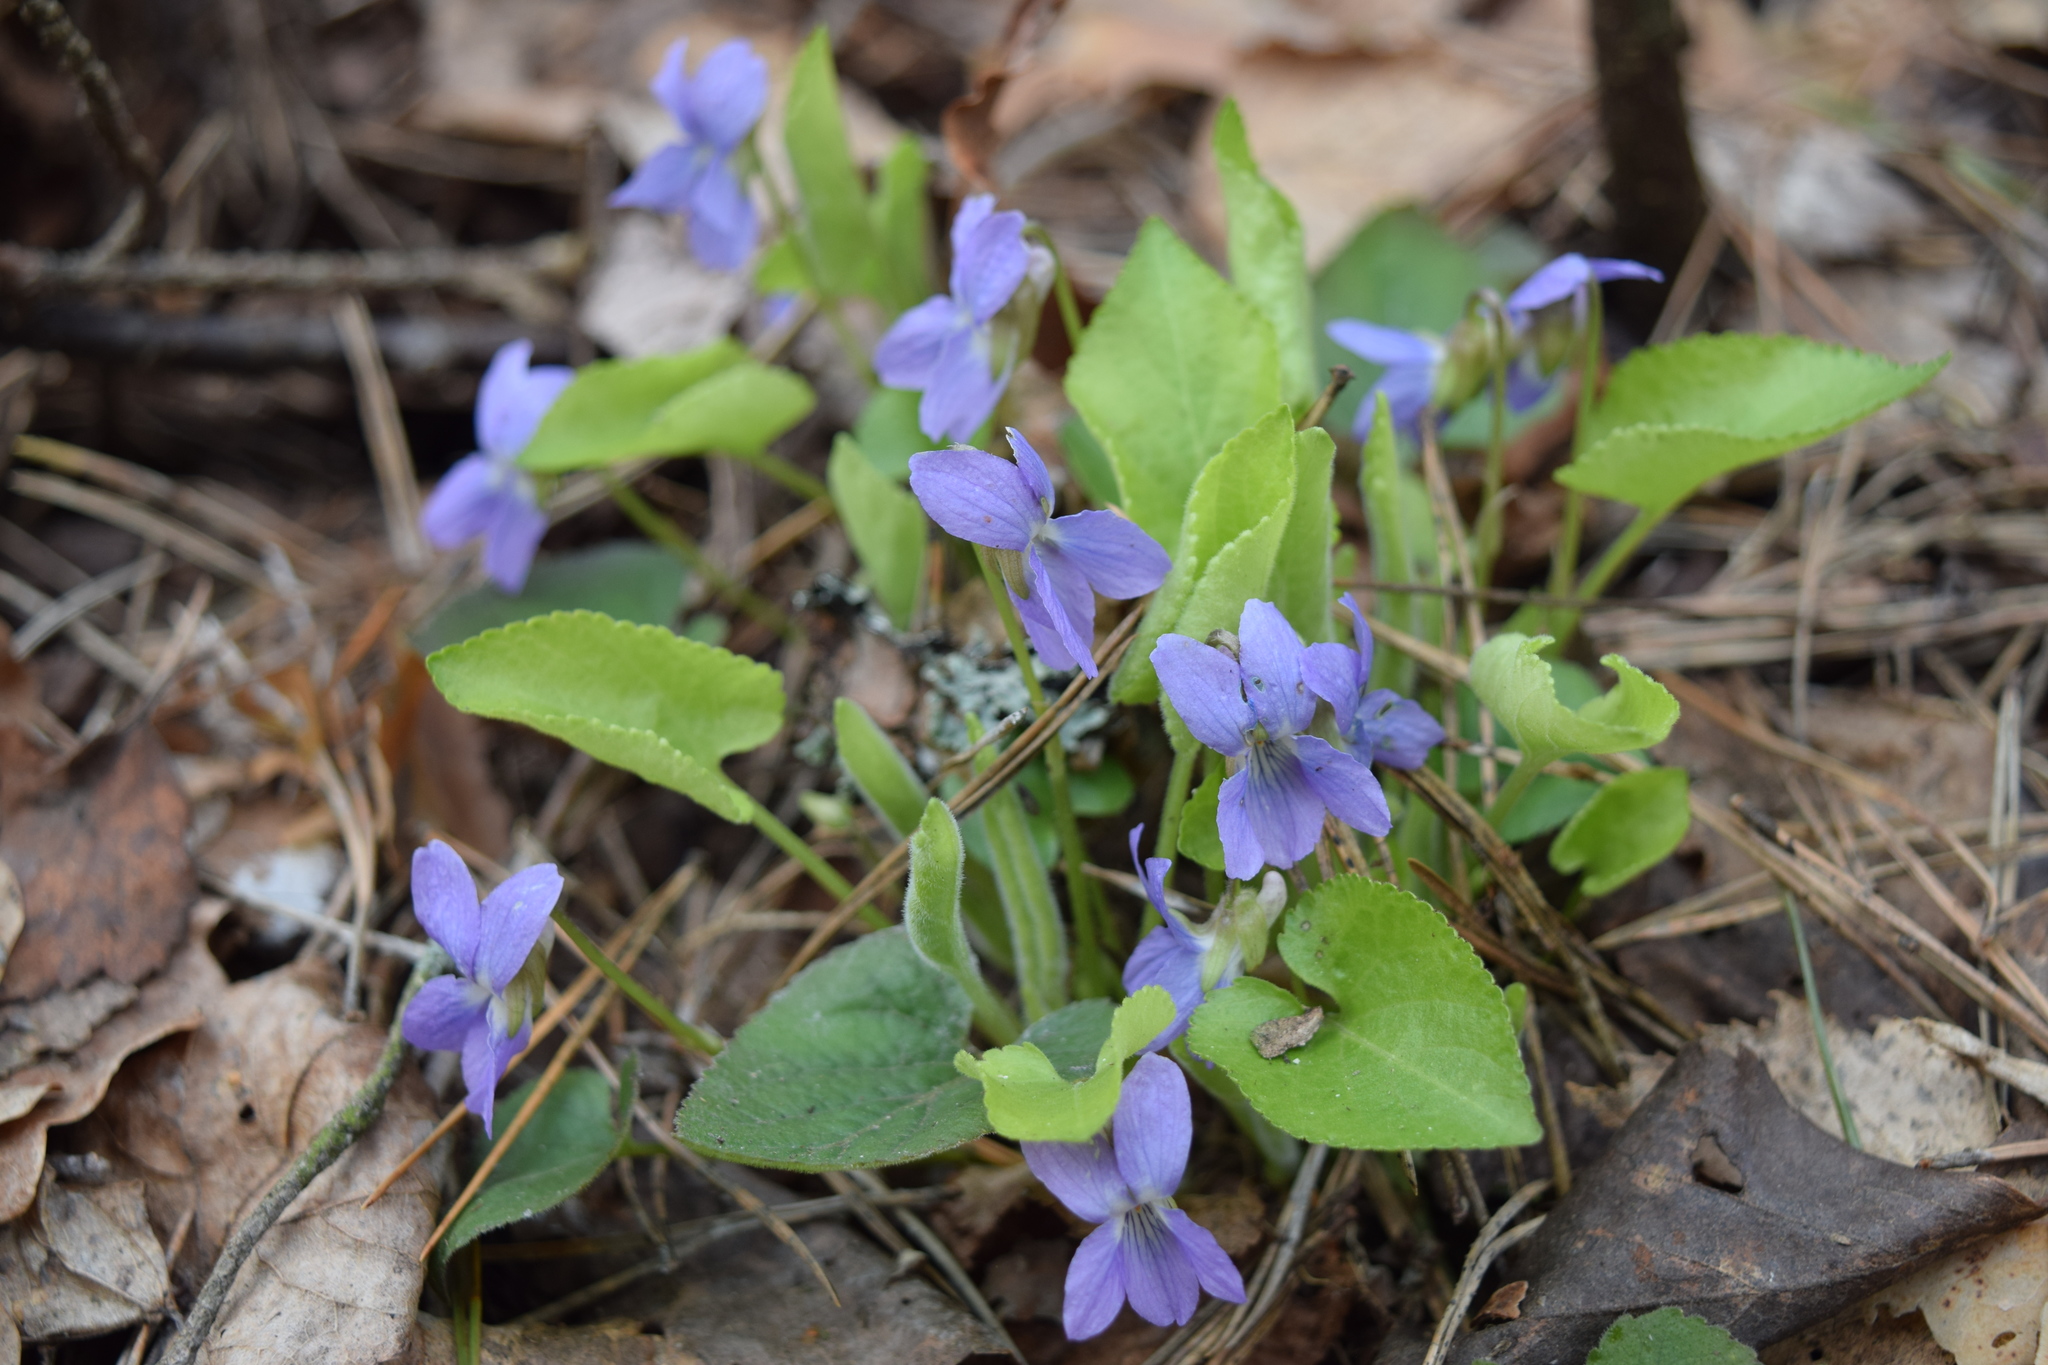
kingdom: Plantae
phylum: Tracheophyta
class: Magnoliopsida
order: Malpighiales
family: Violaceae
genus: Viola
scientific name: Viola collina
